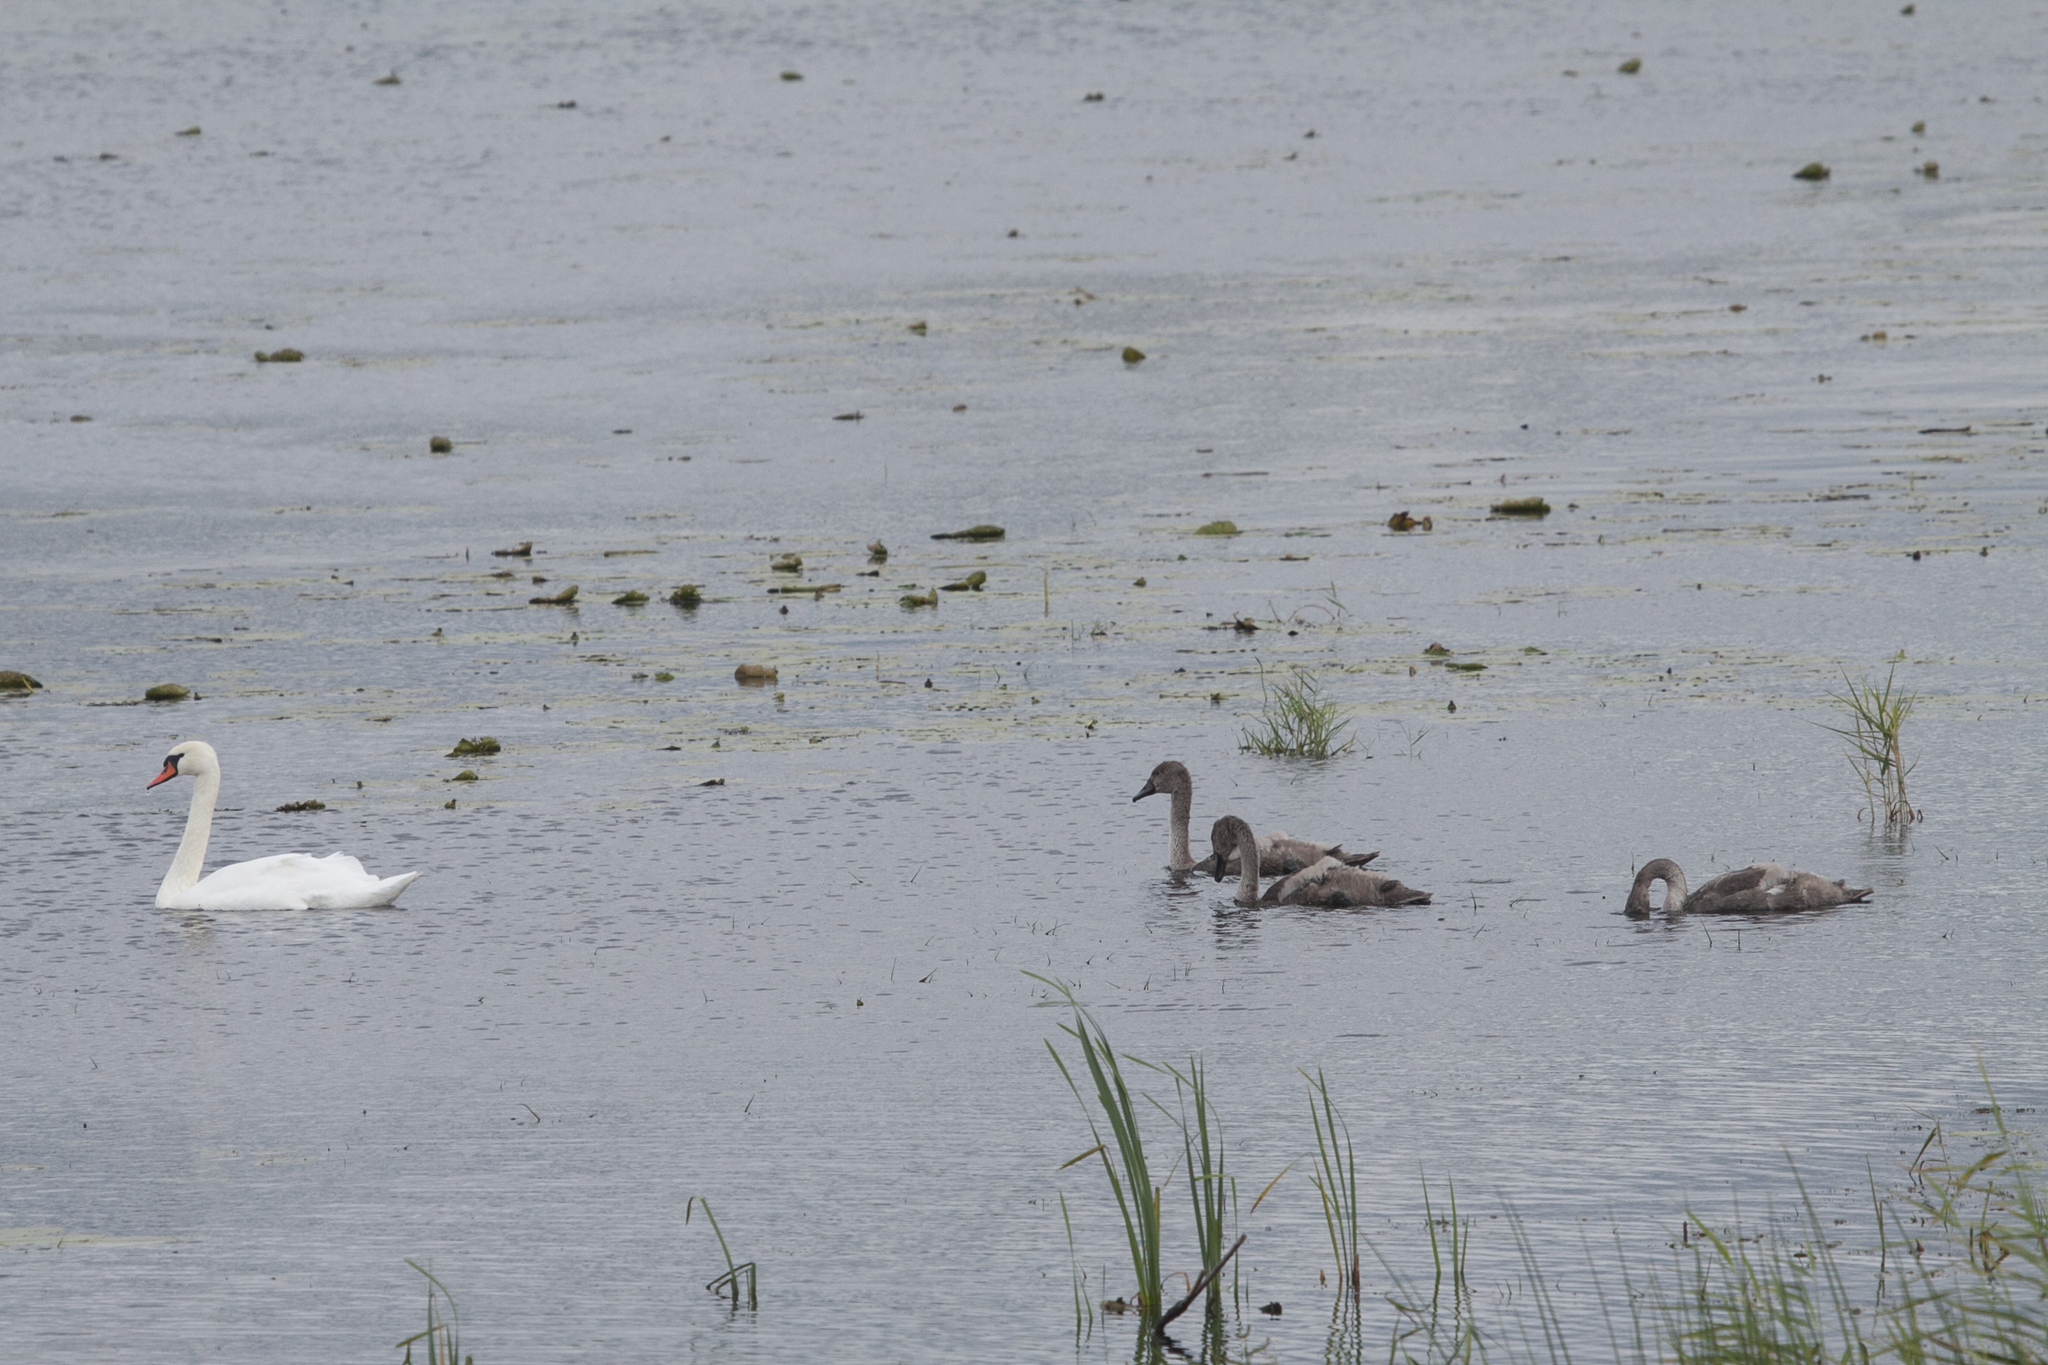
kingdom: Animalia
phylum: Chordata
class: Aves
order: Anseriformes
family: Anatidae
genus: Cygnus
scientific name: Cygnus olor
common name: Mute swan
